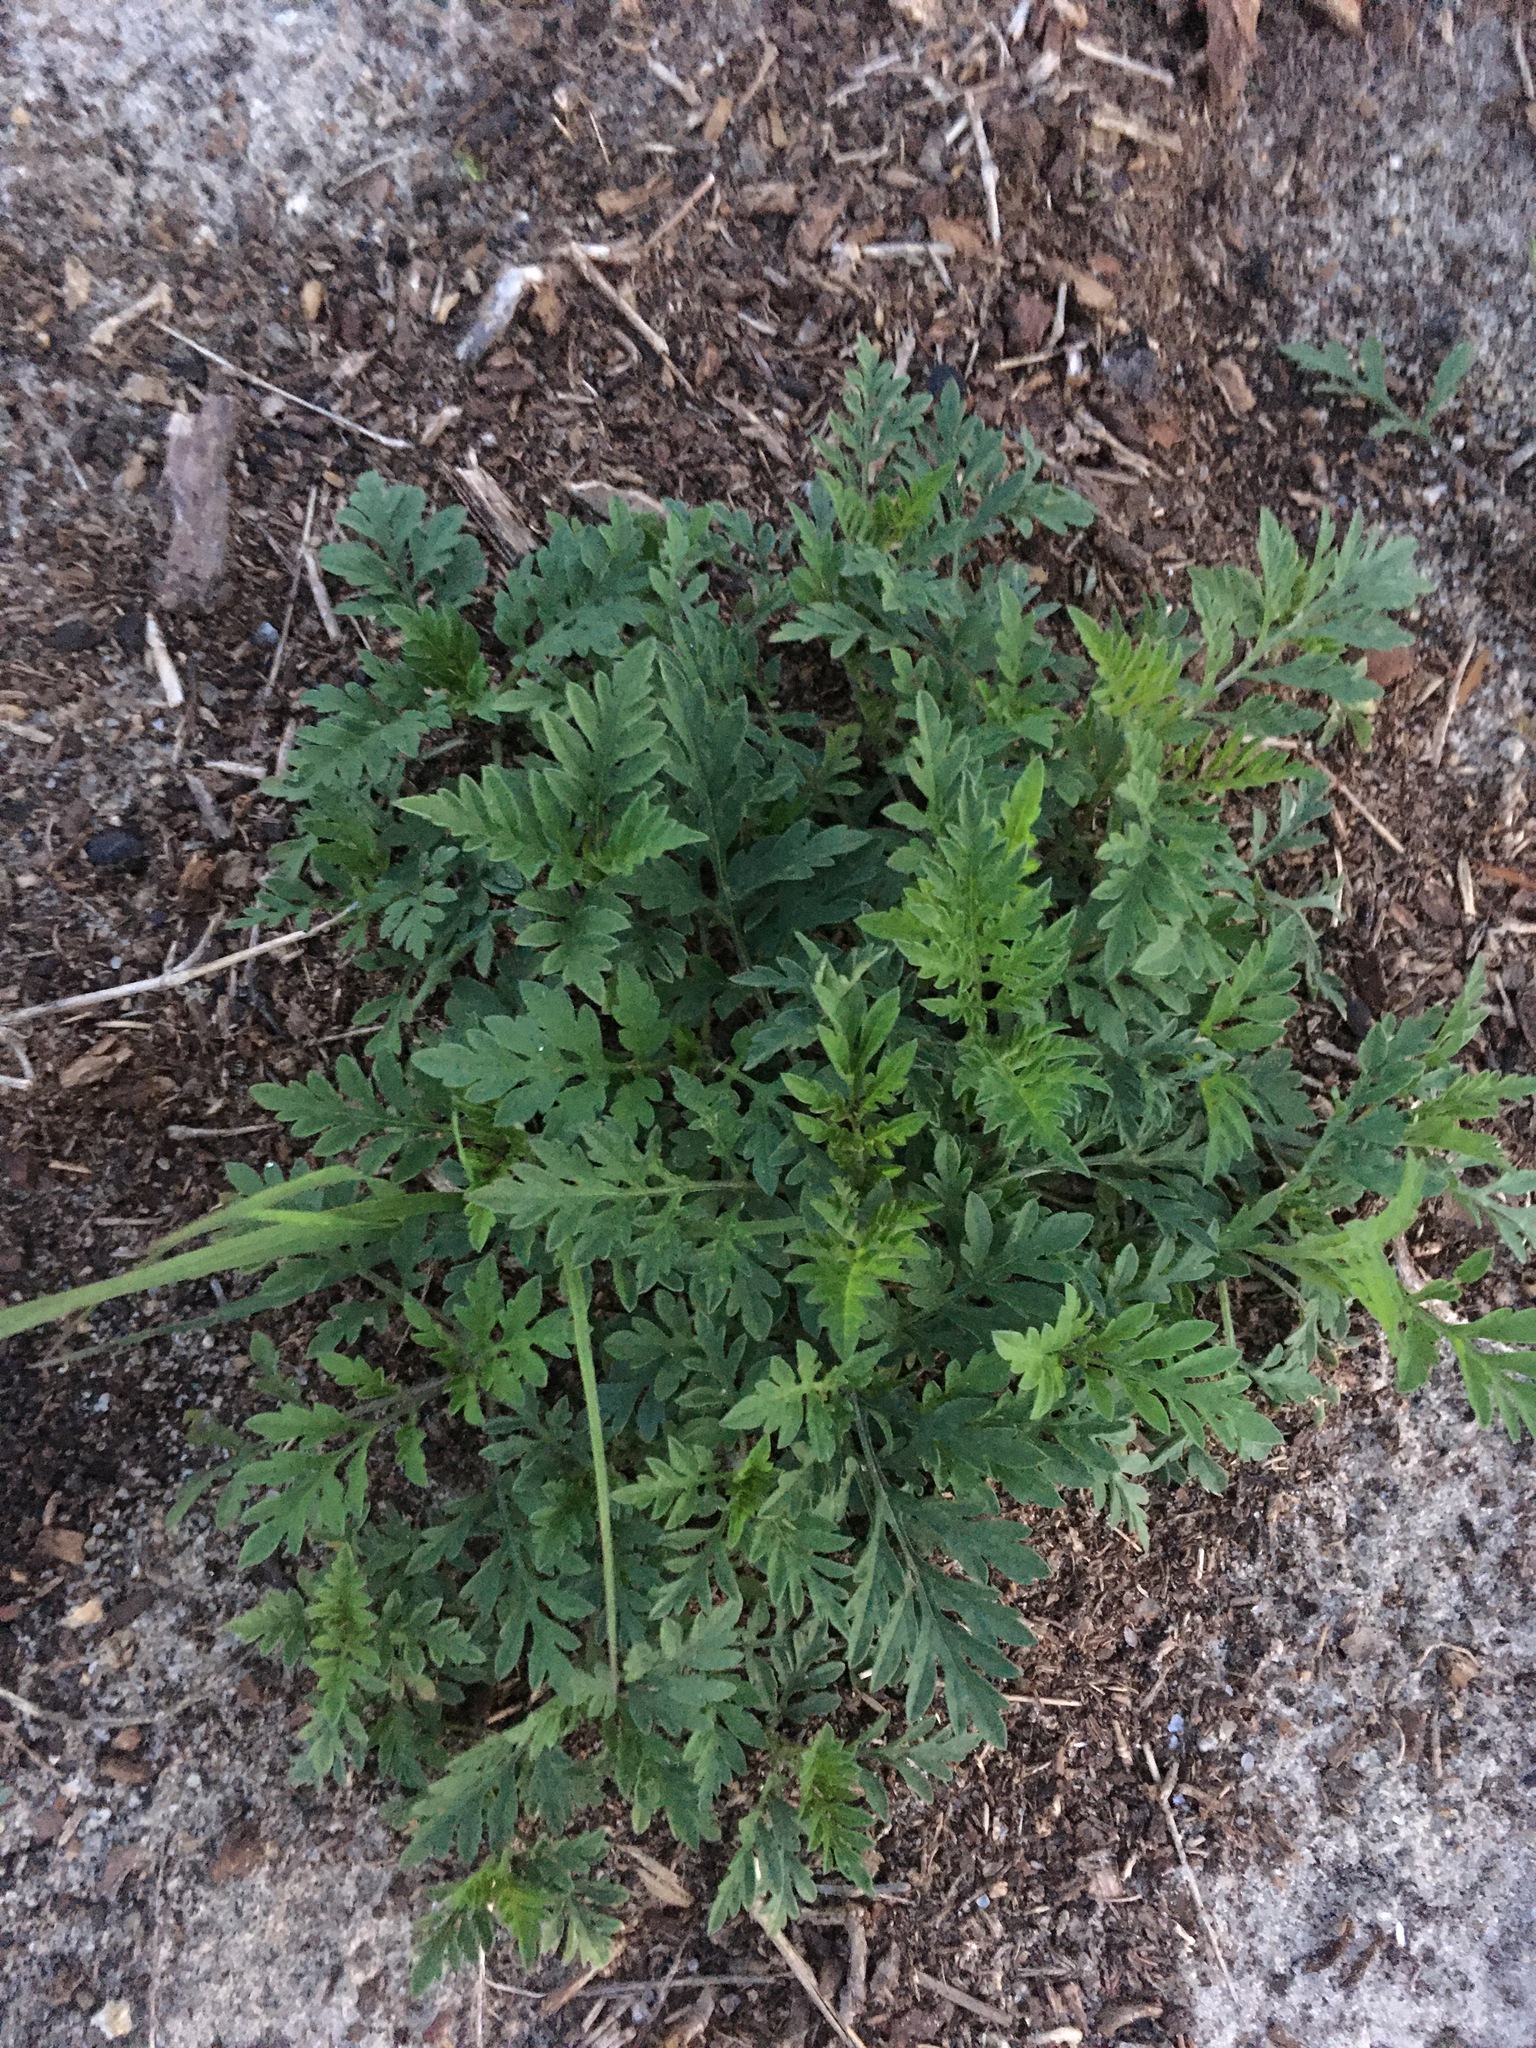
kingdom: Plantae
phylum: Tracheophyta
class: Magnoliopsida
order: Asterales
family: Asteraceae
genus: Ambrosia
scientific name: Ambrosia artemisiifolia
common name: Annual ragweed
